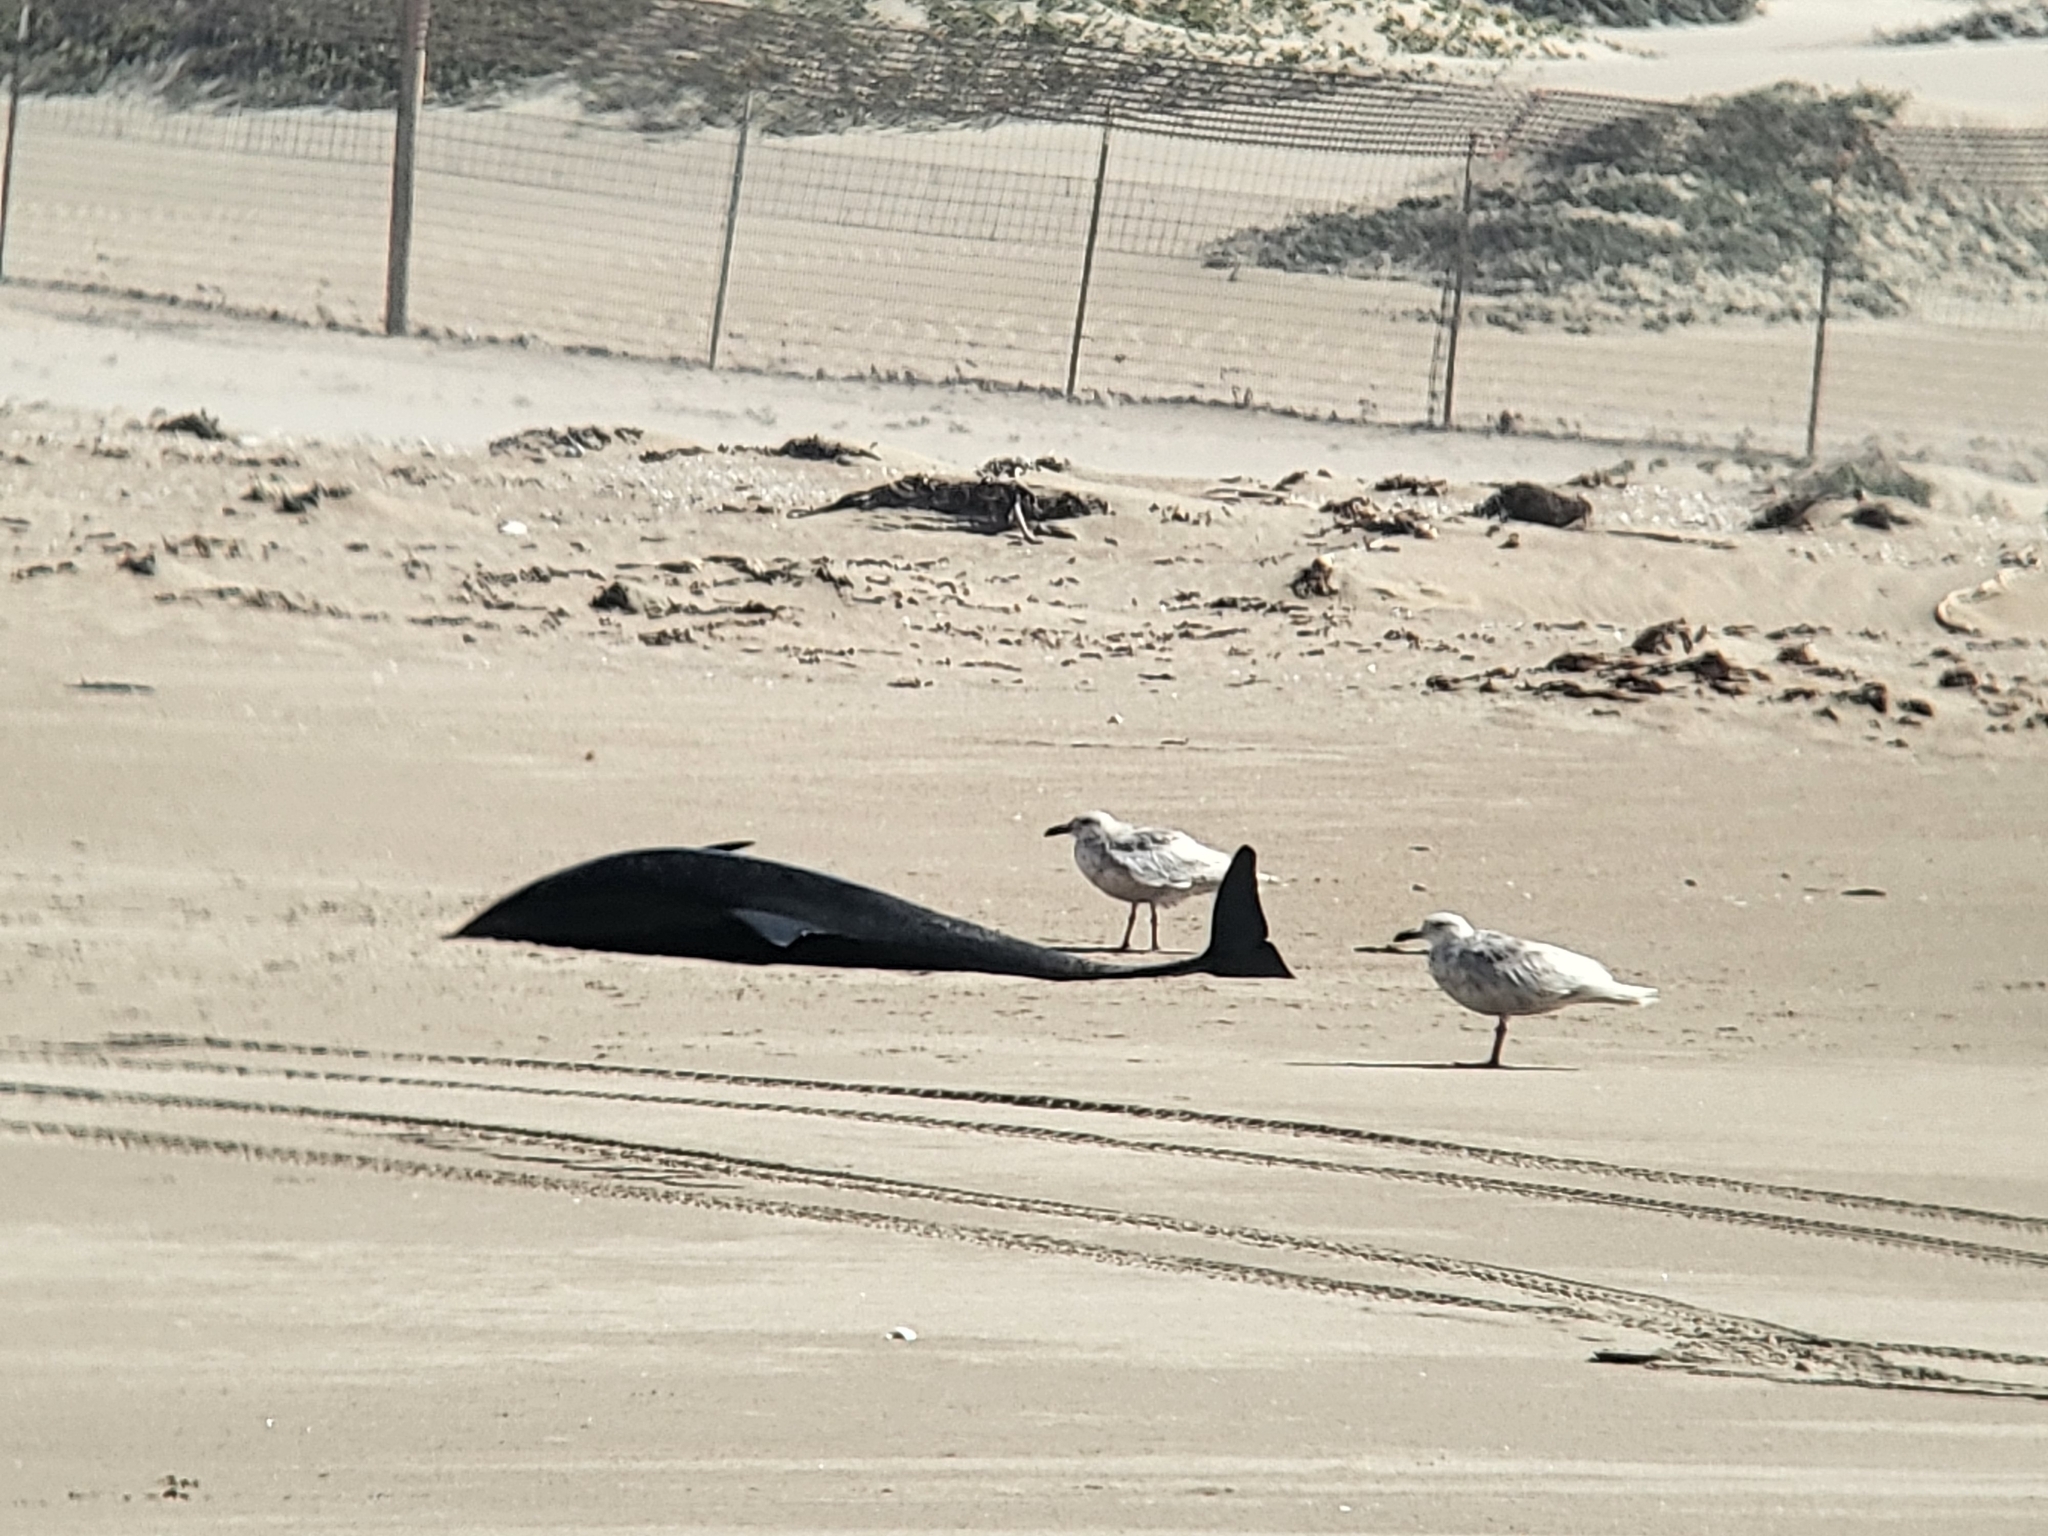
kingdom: Animalia
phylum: Chordata
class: Aves
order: Charadriiformes
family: Laridae
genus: Larus
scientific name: Larus glaucescens
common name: Glaucous-winged gull
